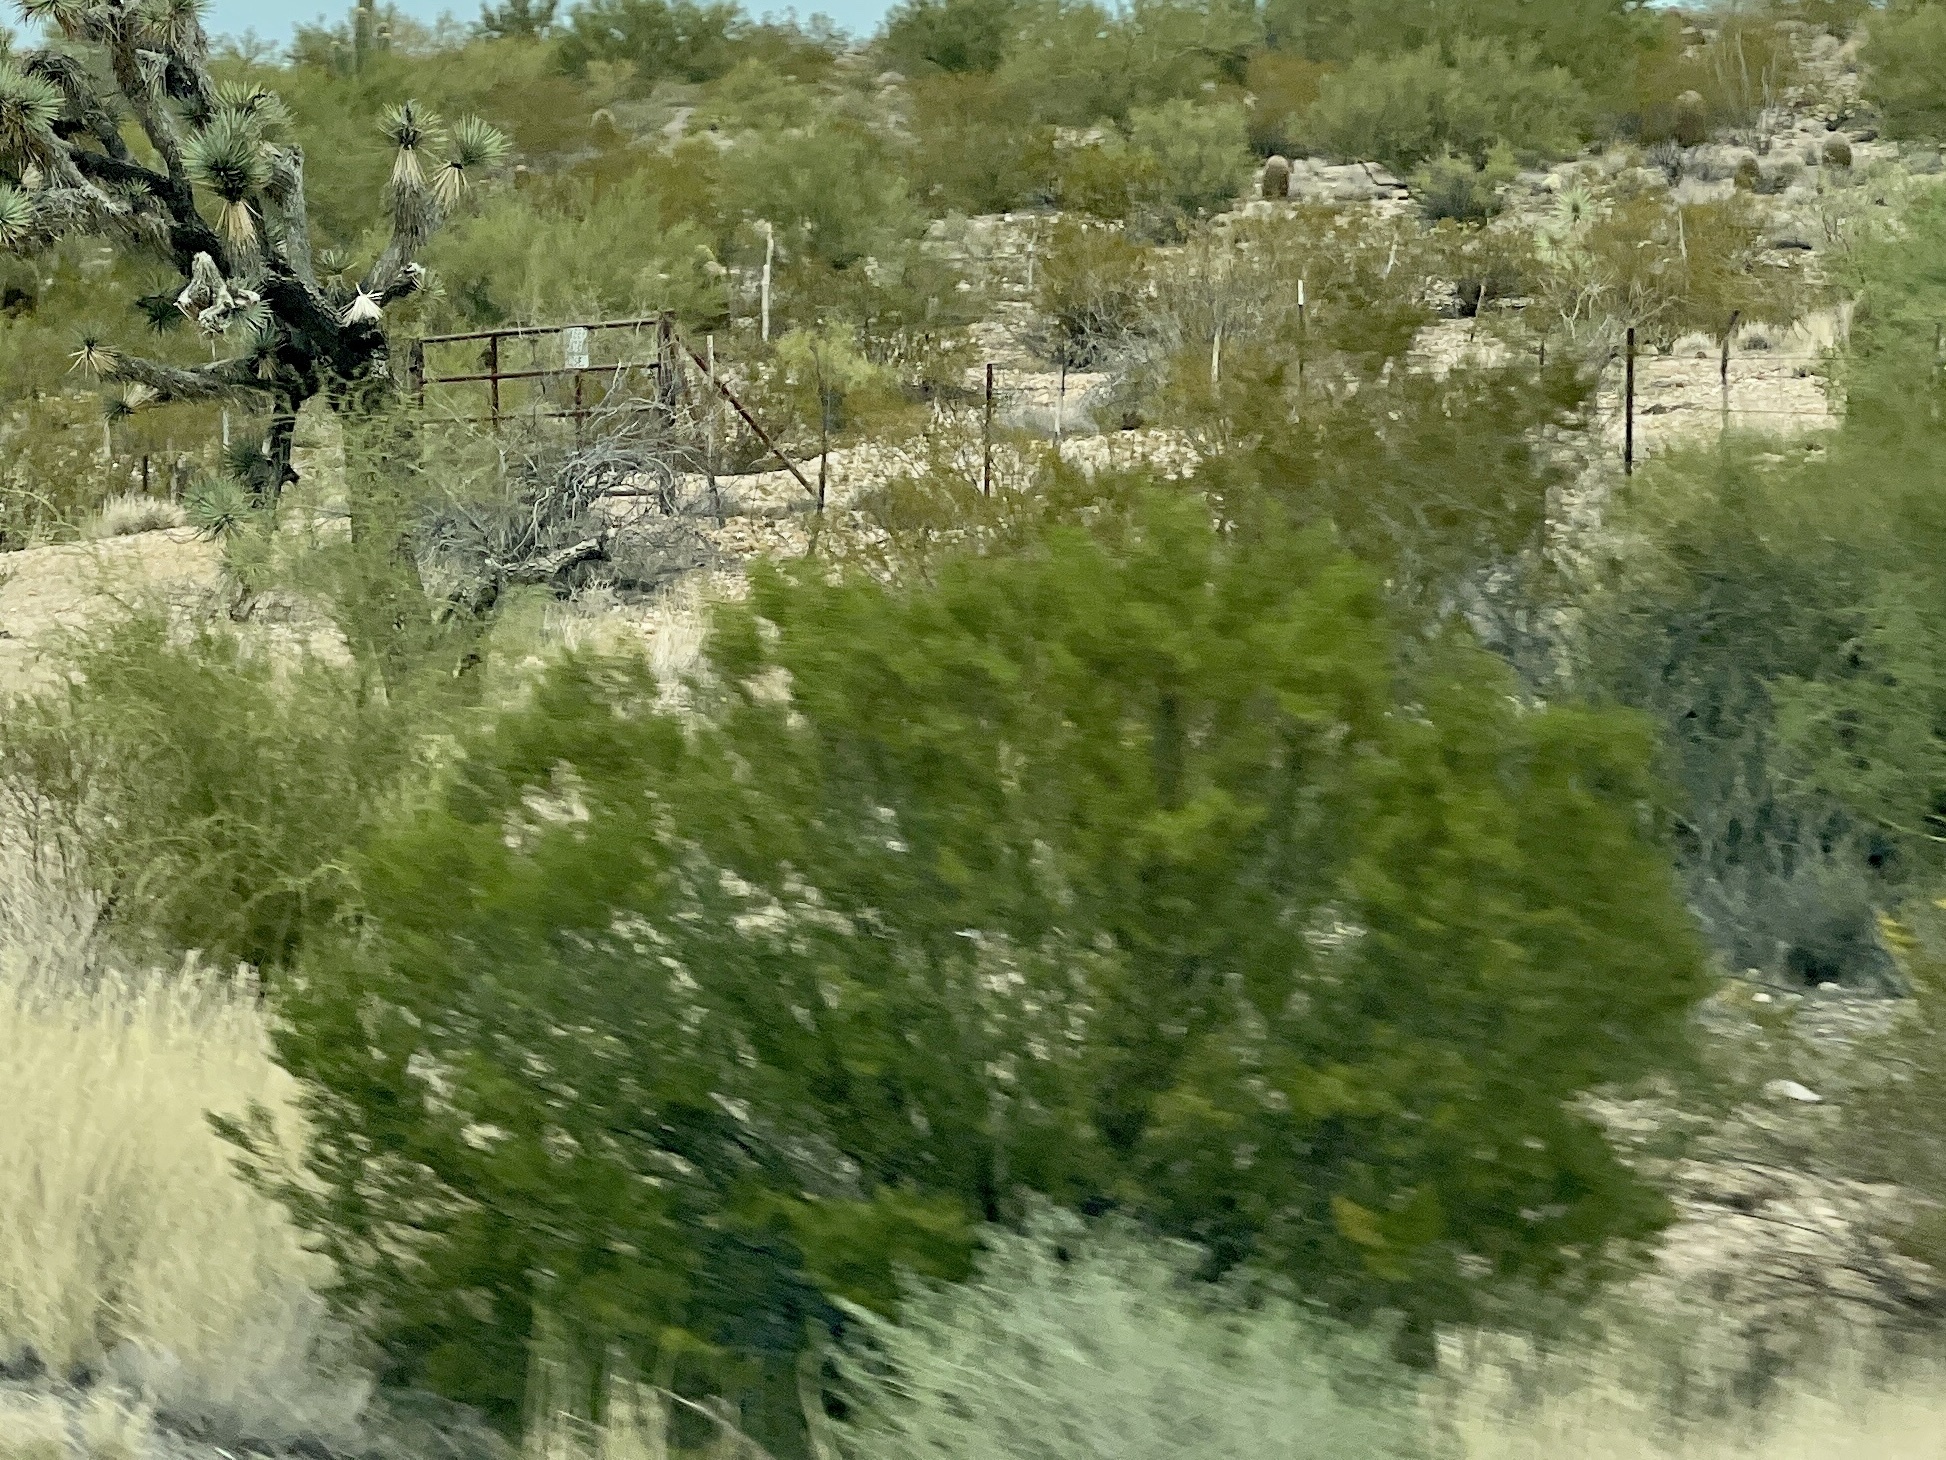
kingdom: Plantae
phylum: Tracheophyta
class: Magnoliopsida
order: Zygophyllales
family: Zygophyllaceae
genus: Larrea
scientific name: Larrea tridentata
